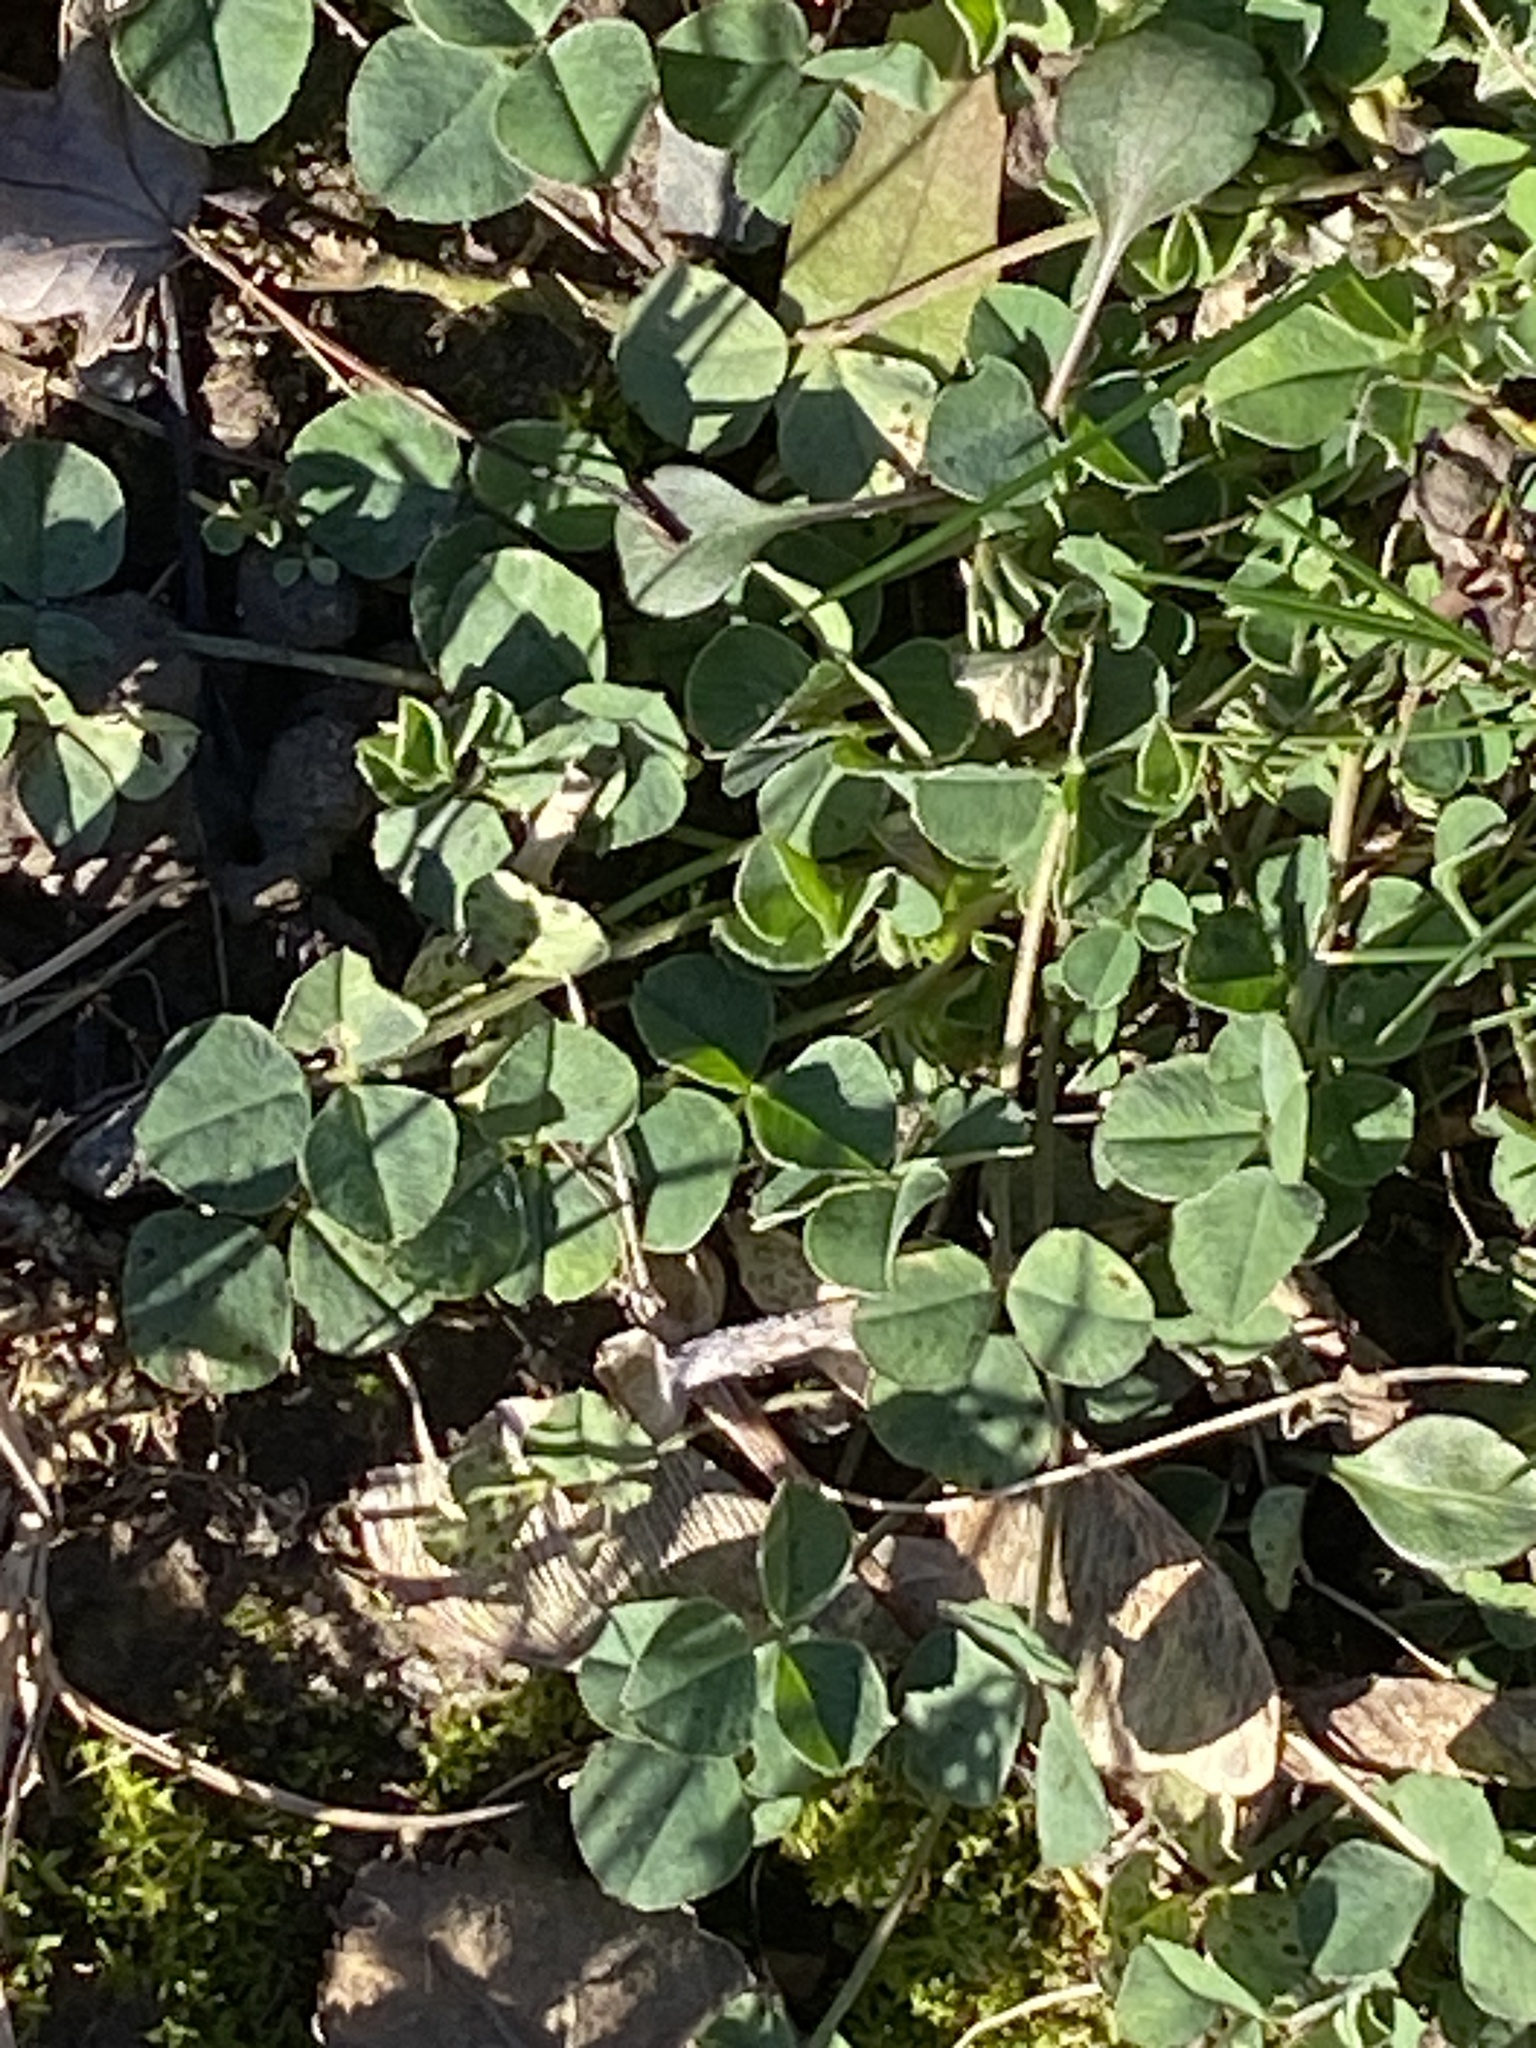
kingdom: Plantae
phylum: Tracheophyta
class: Magnoliopsida
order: Fabales
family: Fabaceae
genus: Medicago
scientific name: Medicago lupulina
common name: Black medick
